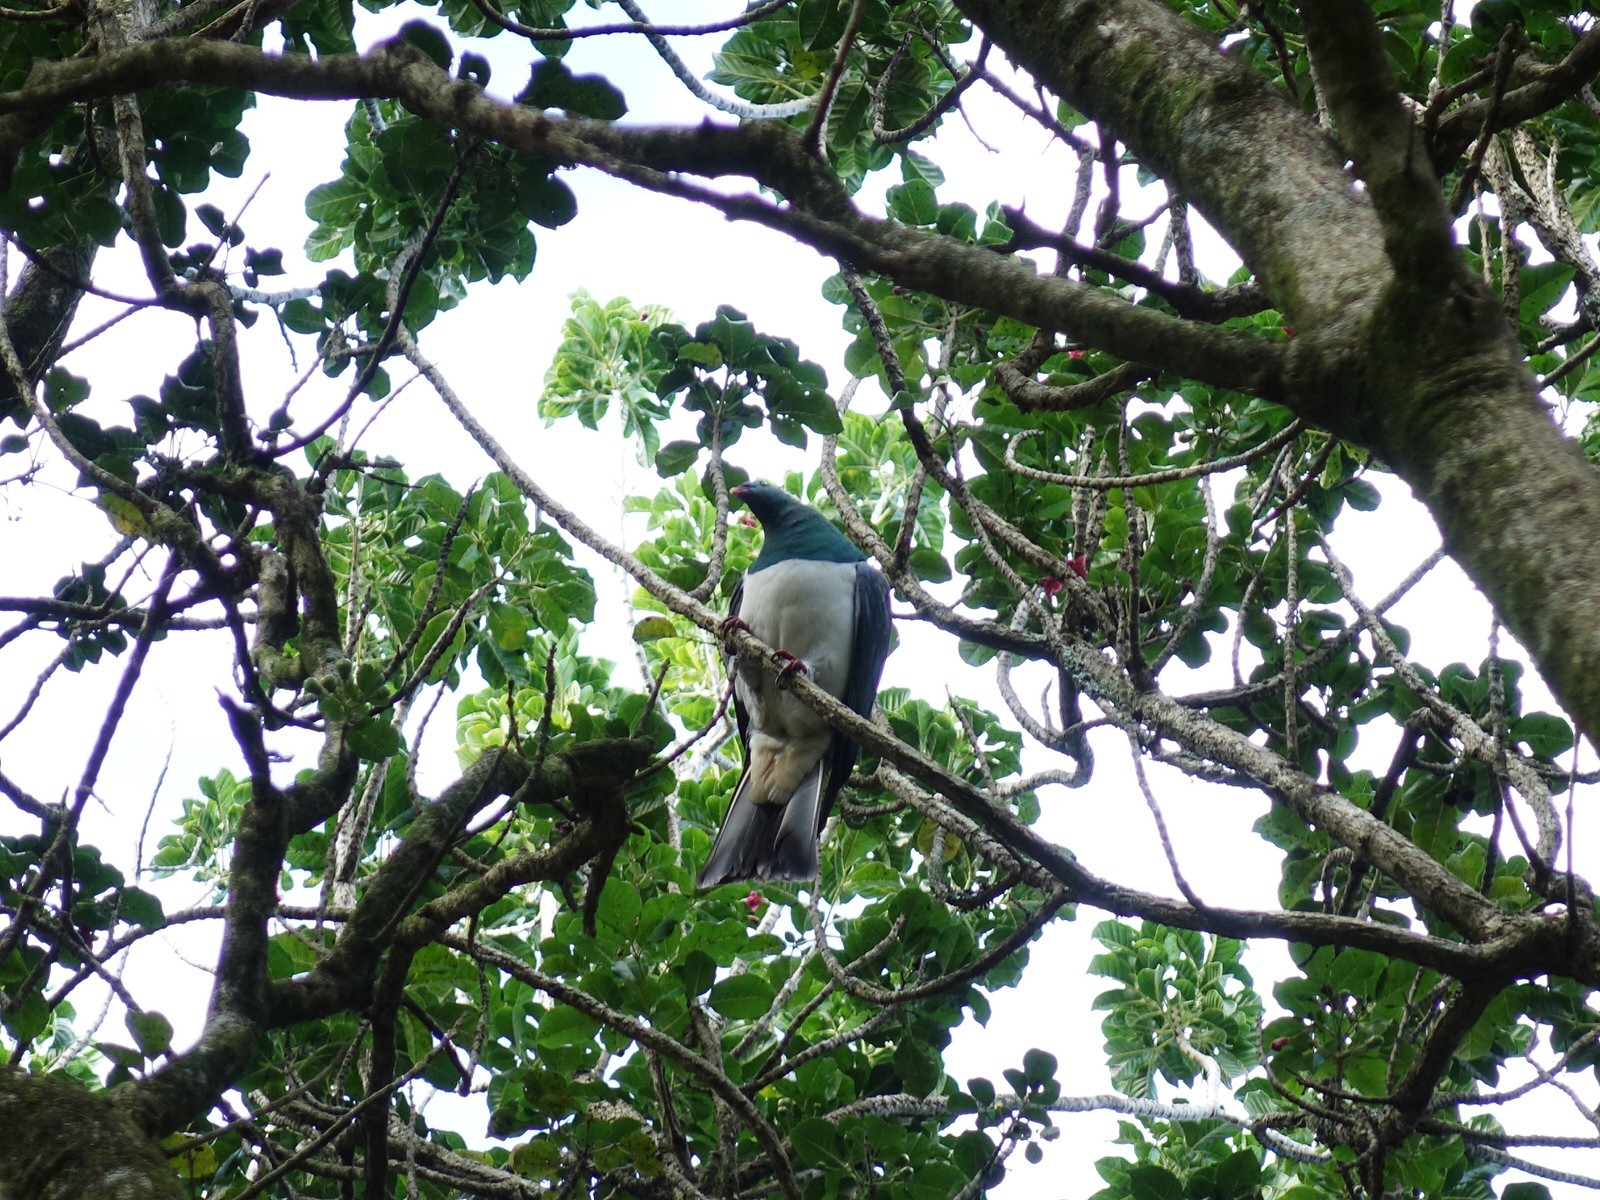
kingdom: Animalia
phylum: Chordata
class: Aves
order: Columbiformes
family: Columbidae
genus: Hemiphaga
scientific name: Hemiphaga novaeseelandiae
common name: New zealand pigeon
